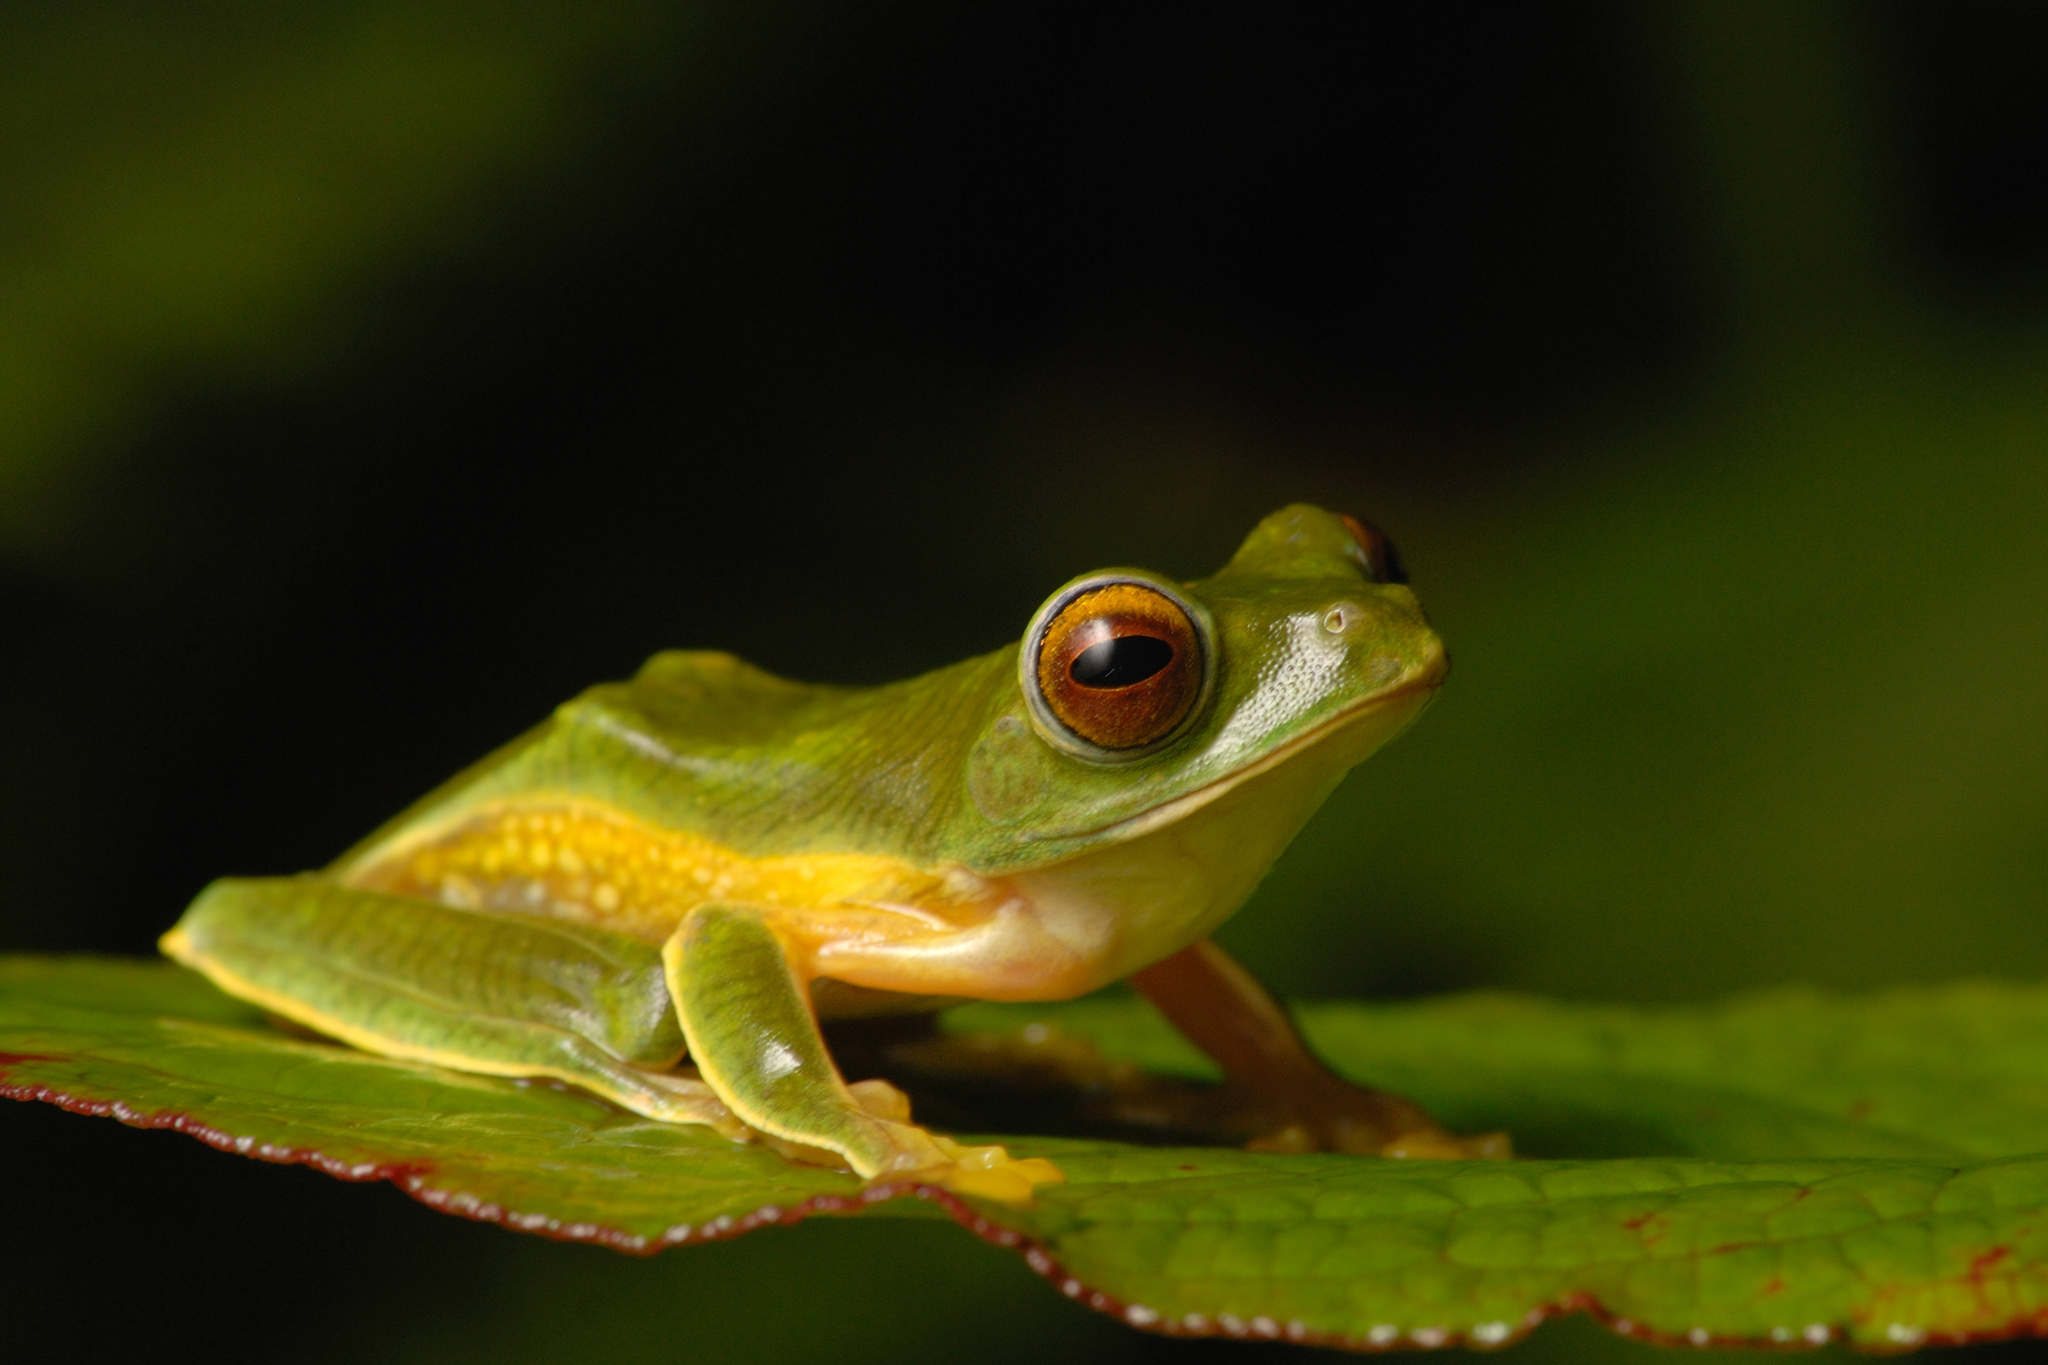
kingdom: Animalia
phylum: Chordata
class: Amphibia
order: Anura
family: Rhacophoridae
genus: Rhacophorus
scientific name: Rhacophorus pseudomalabaricus
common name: Anaimalai flying frog
